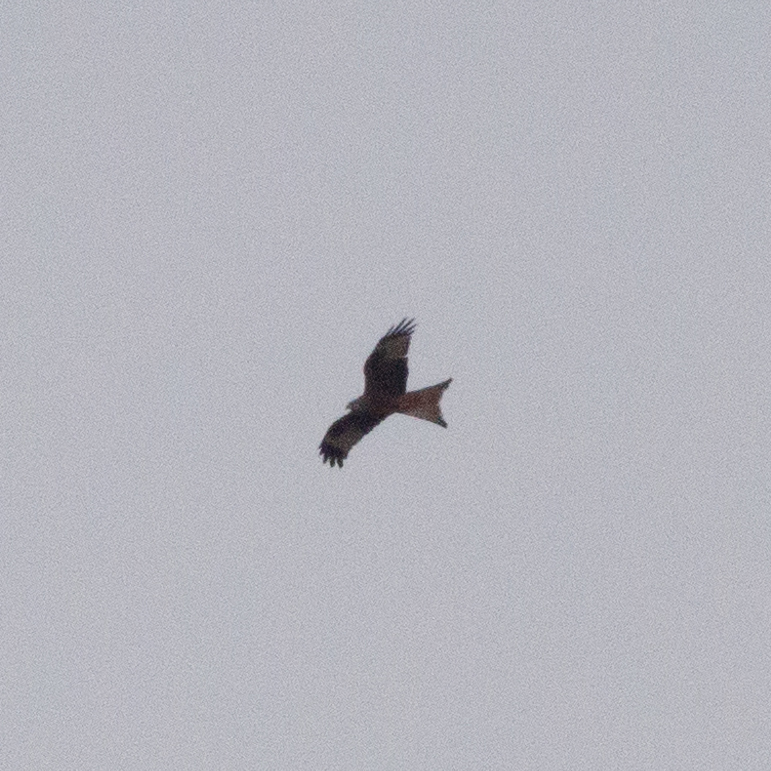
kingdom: Animalia
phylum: Chordata
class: Aves
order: Accipitriformes
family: Accipitridae
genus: Milvus
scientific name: Milvus milvus
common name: Red kite
